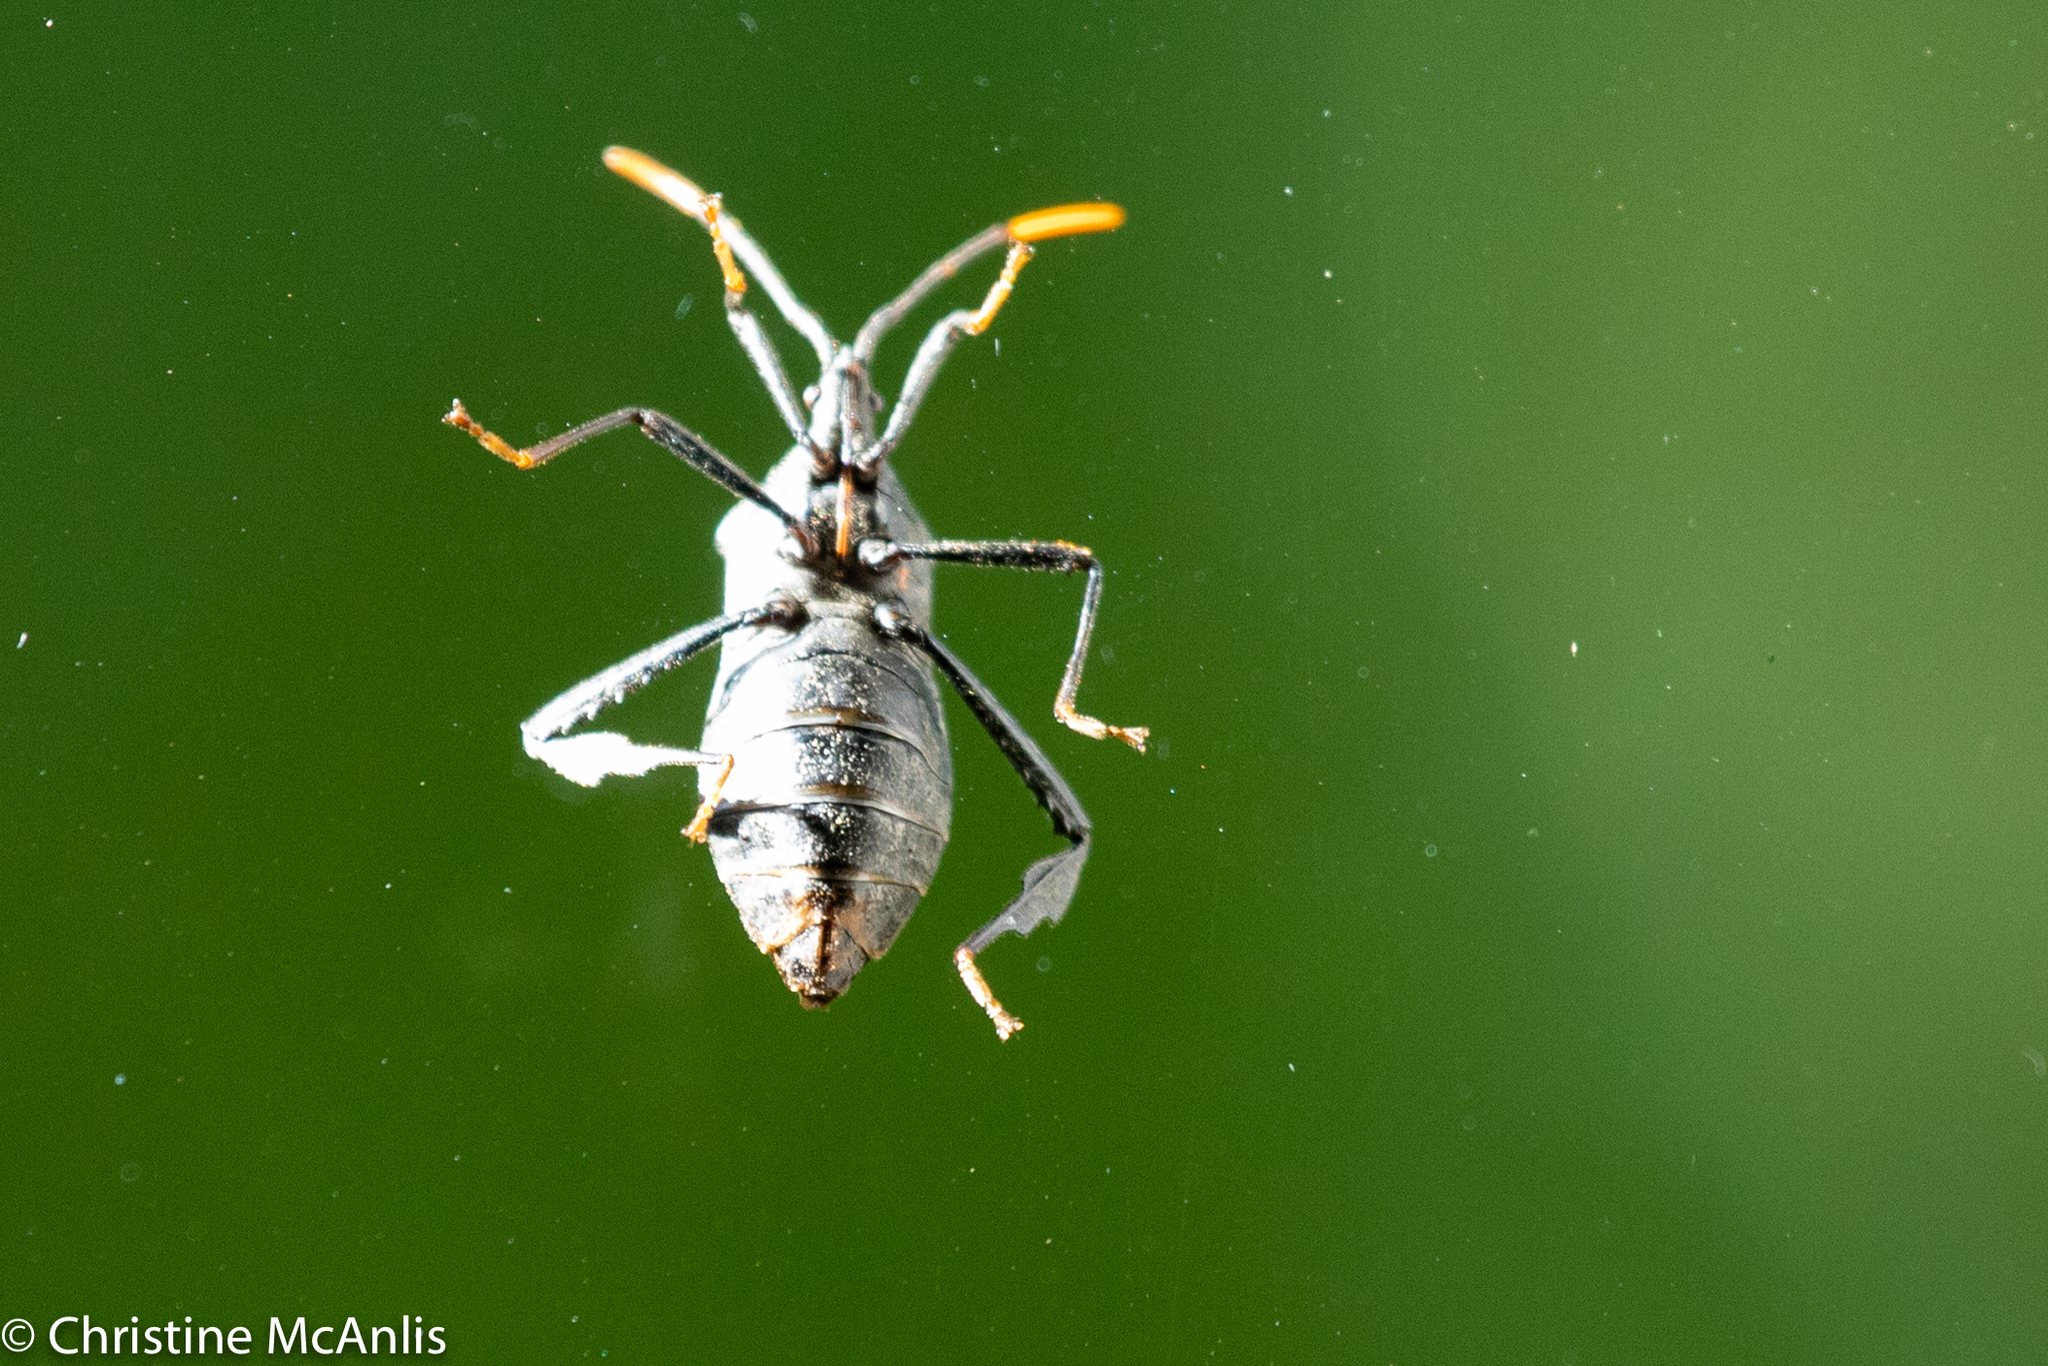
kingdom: Animalia
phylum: Arthropoda
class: Insecta
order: Hemiptera
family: Coreidae
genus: Acanthocephala
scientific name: Acanthocephala terminalis
